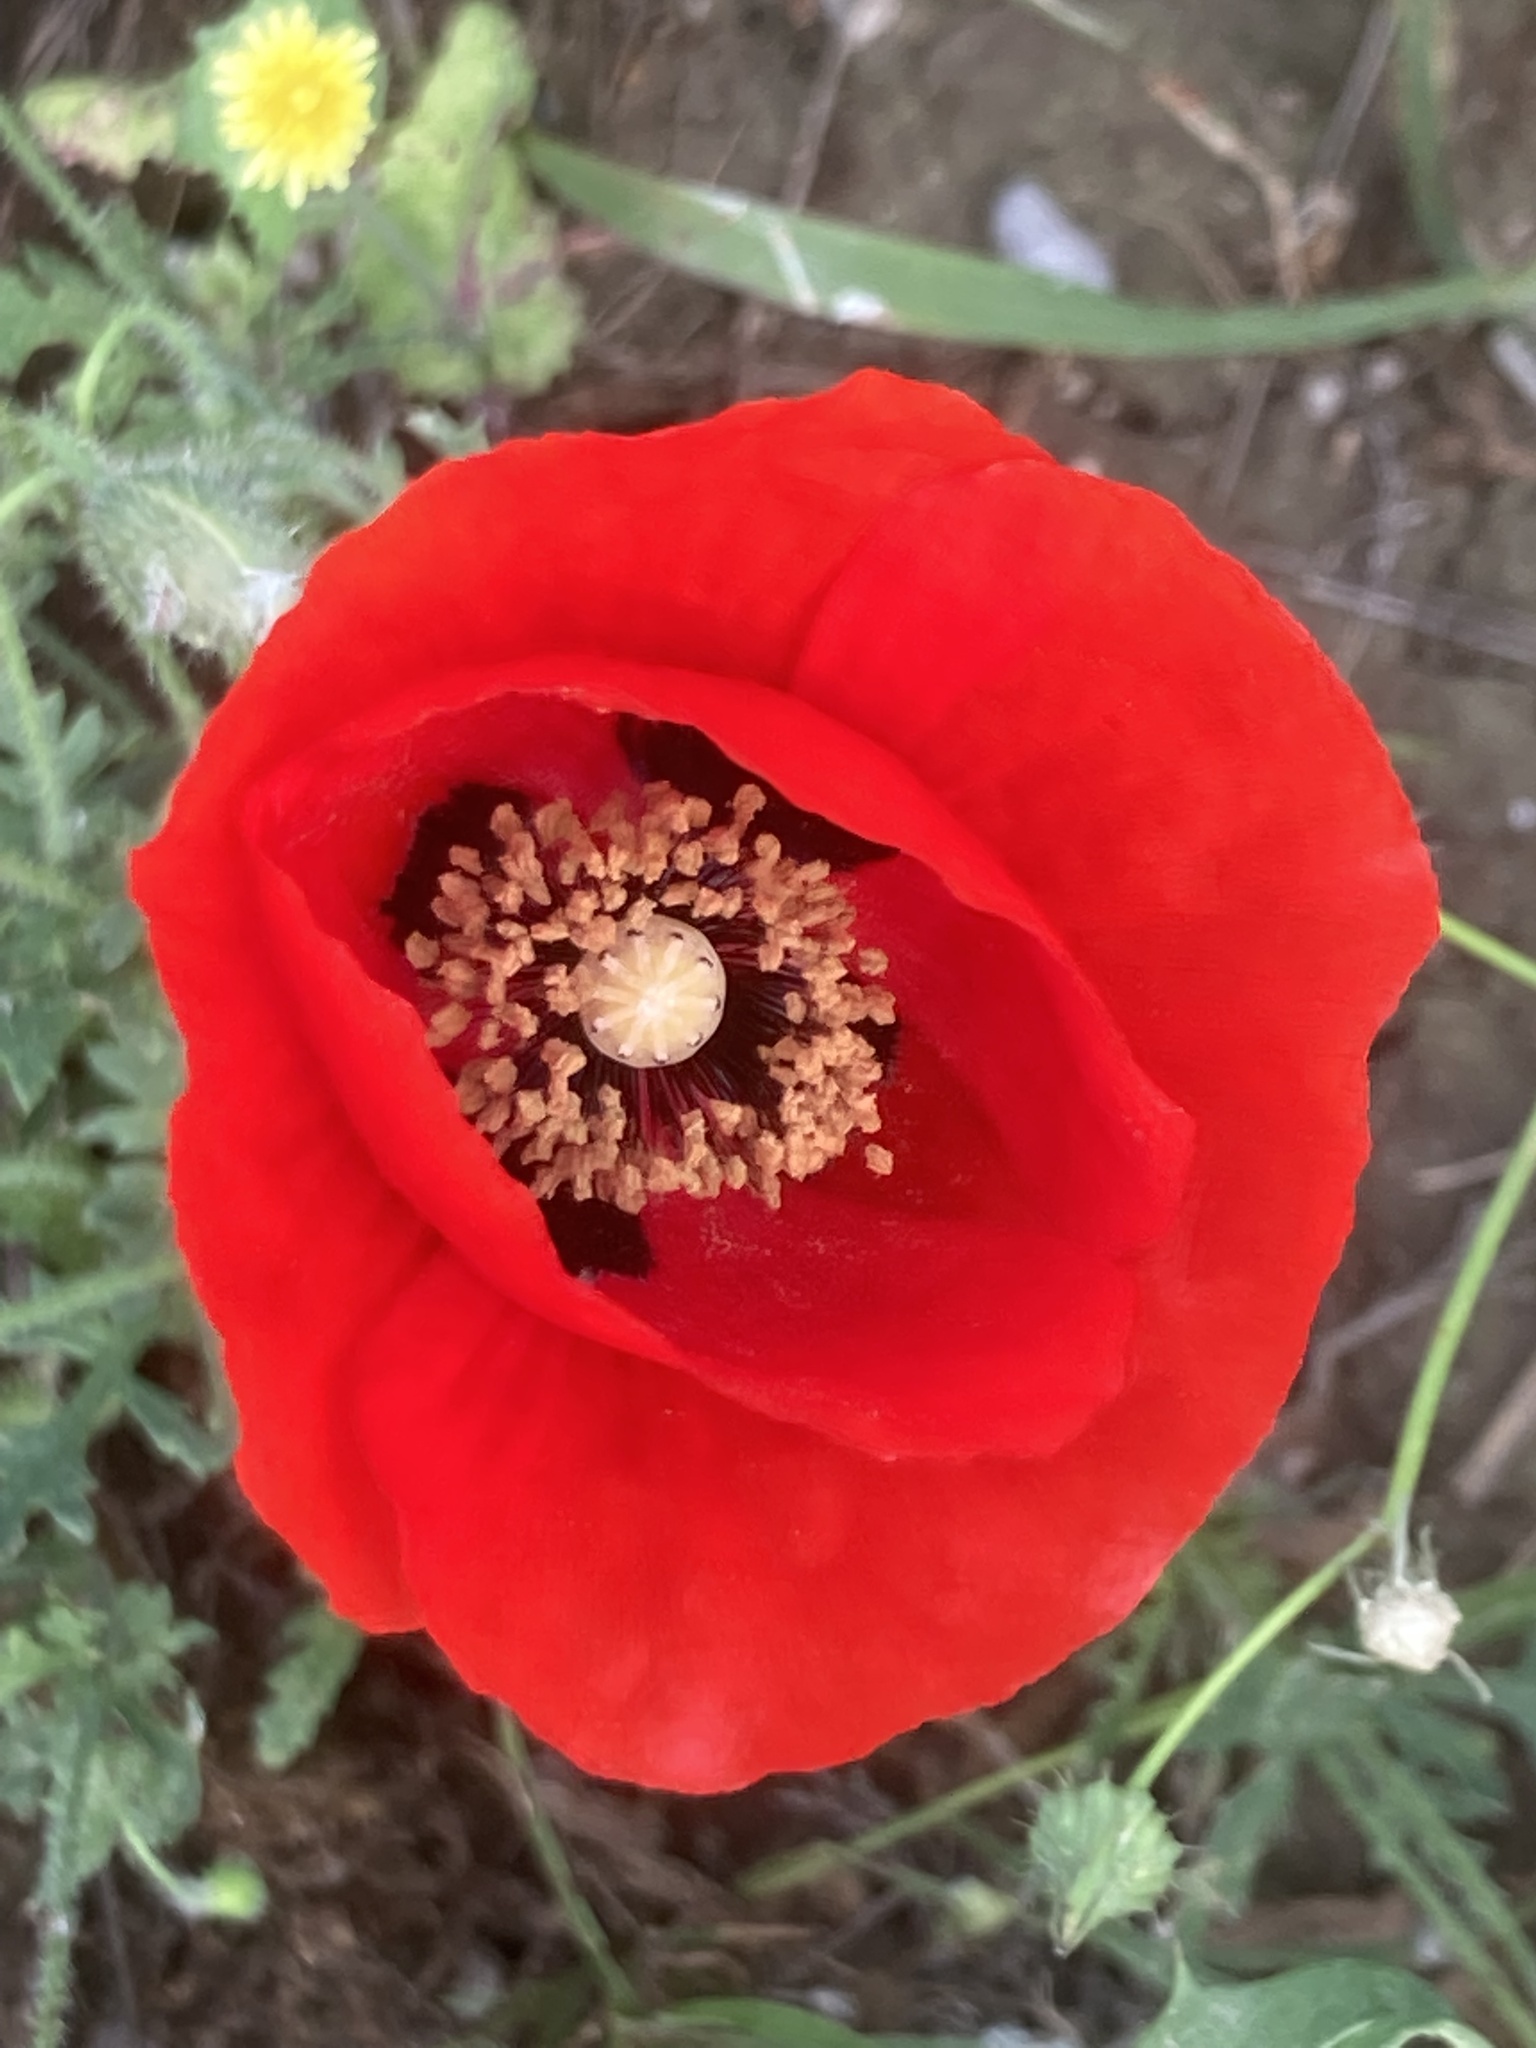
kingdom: Plantae
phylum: Tracheophyta
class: Magnoliopsida
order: Ranunculales
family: Papaveraceae
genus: Papaver
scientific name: Papaver rhoeas
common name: Corn poppy
